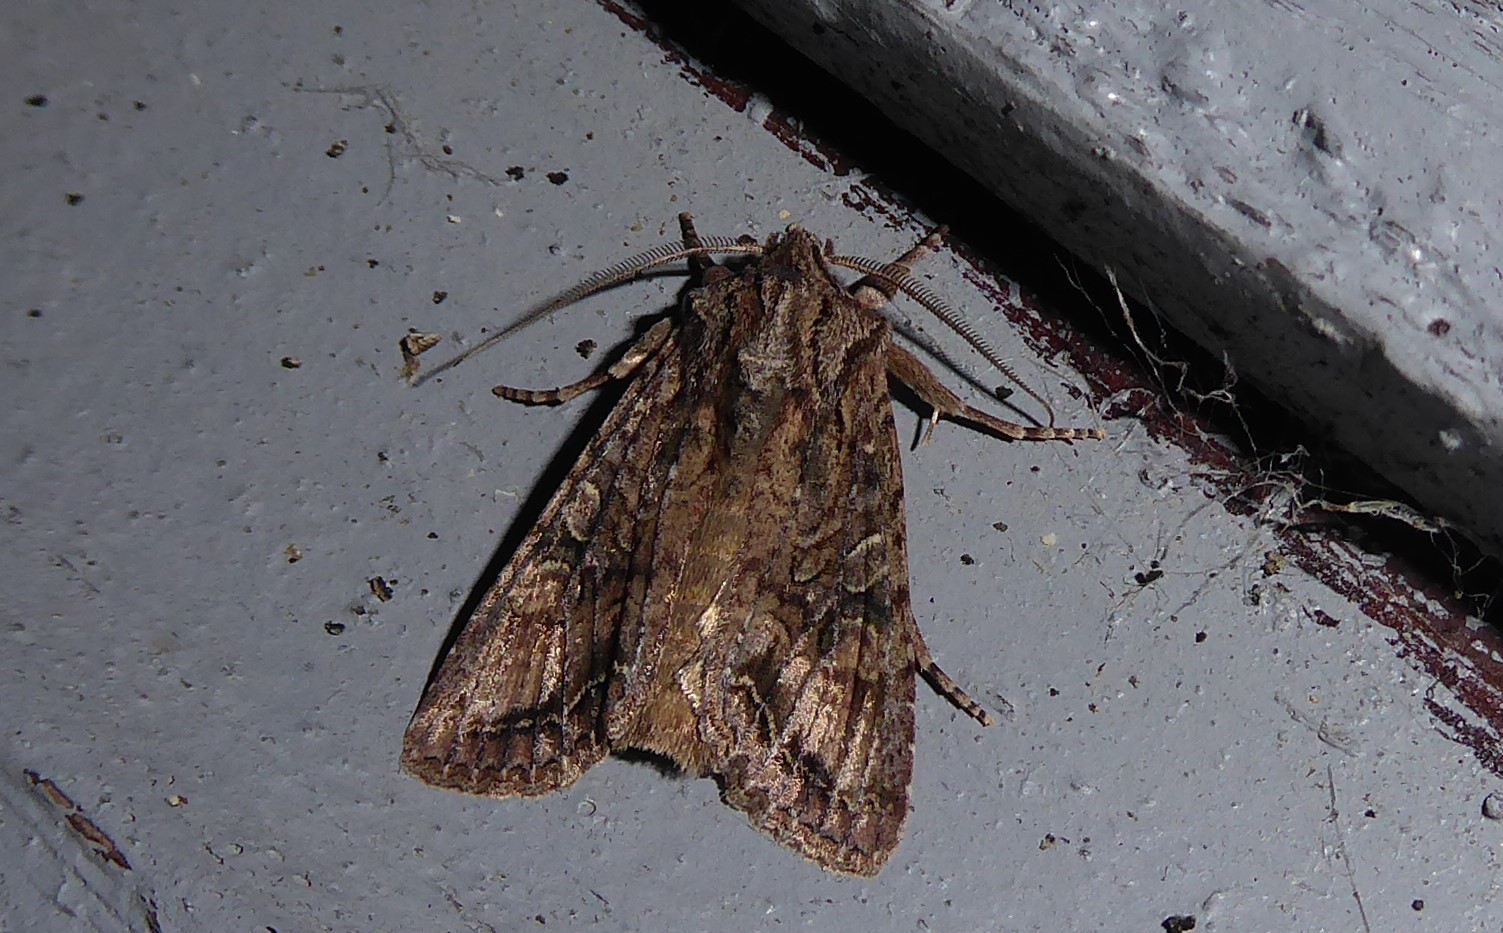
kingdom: Animalia
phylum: Arthropoda
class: Insecta
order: Lepidoptera
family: Noctuidae
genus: Ichneutica
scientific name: Ichneutica mutans
